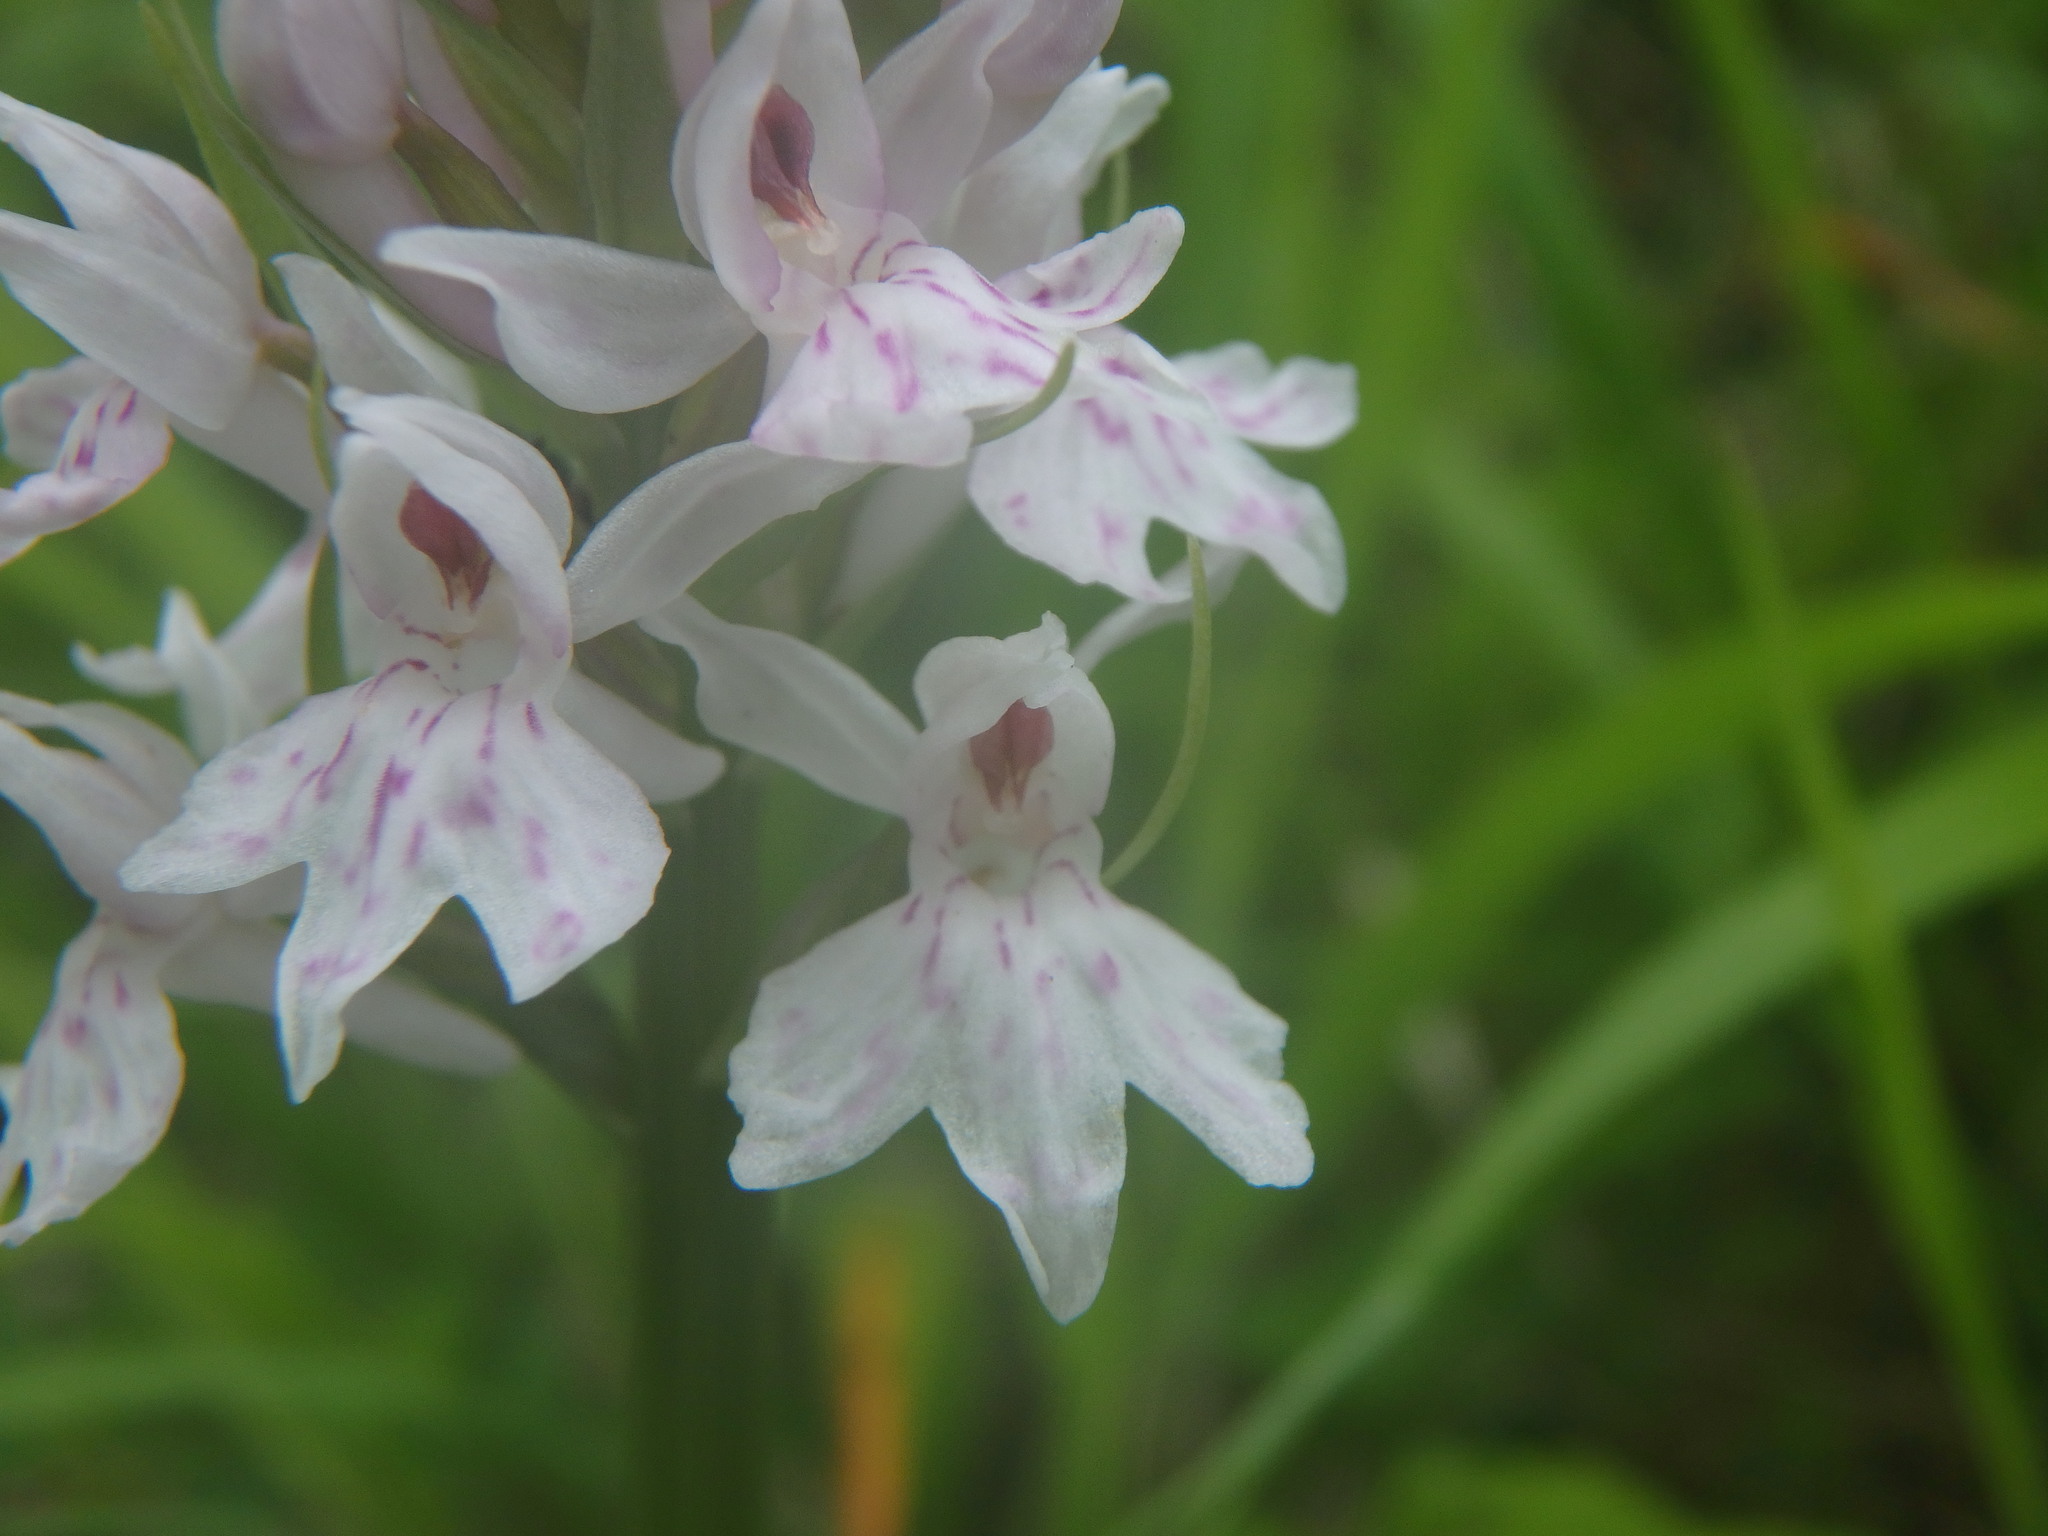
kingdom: Plantae
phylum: Tracheophyta
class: Liliopsida
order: Asparagales
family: Orchidaceae
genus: Dactylorhiza
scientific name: Dactylorhiza maculata
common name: Heath spotted-orchid
